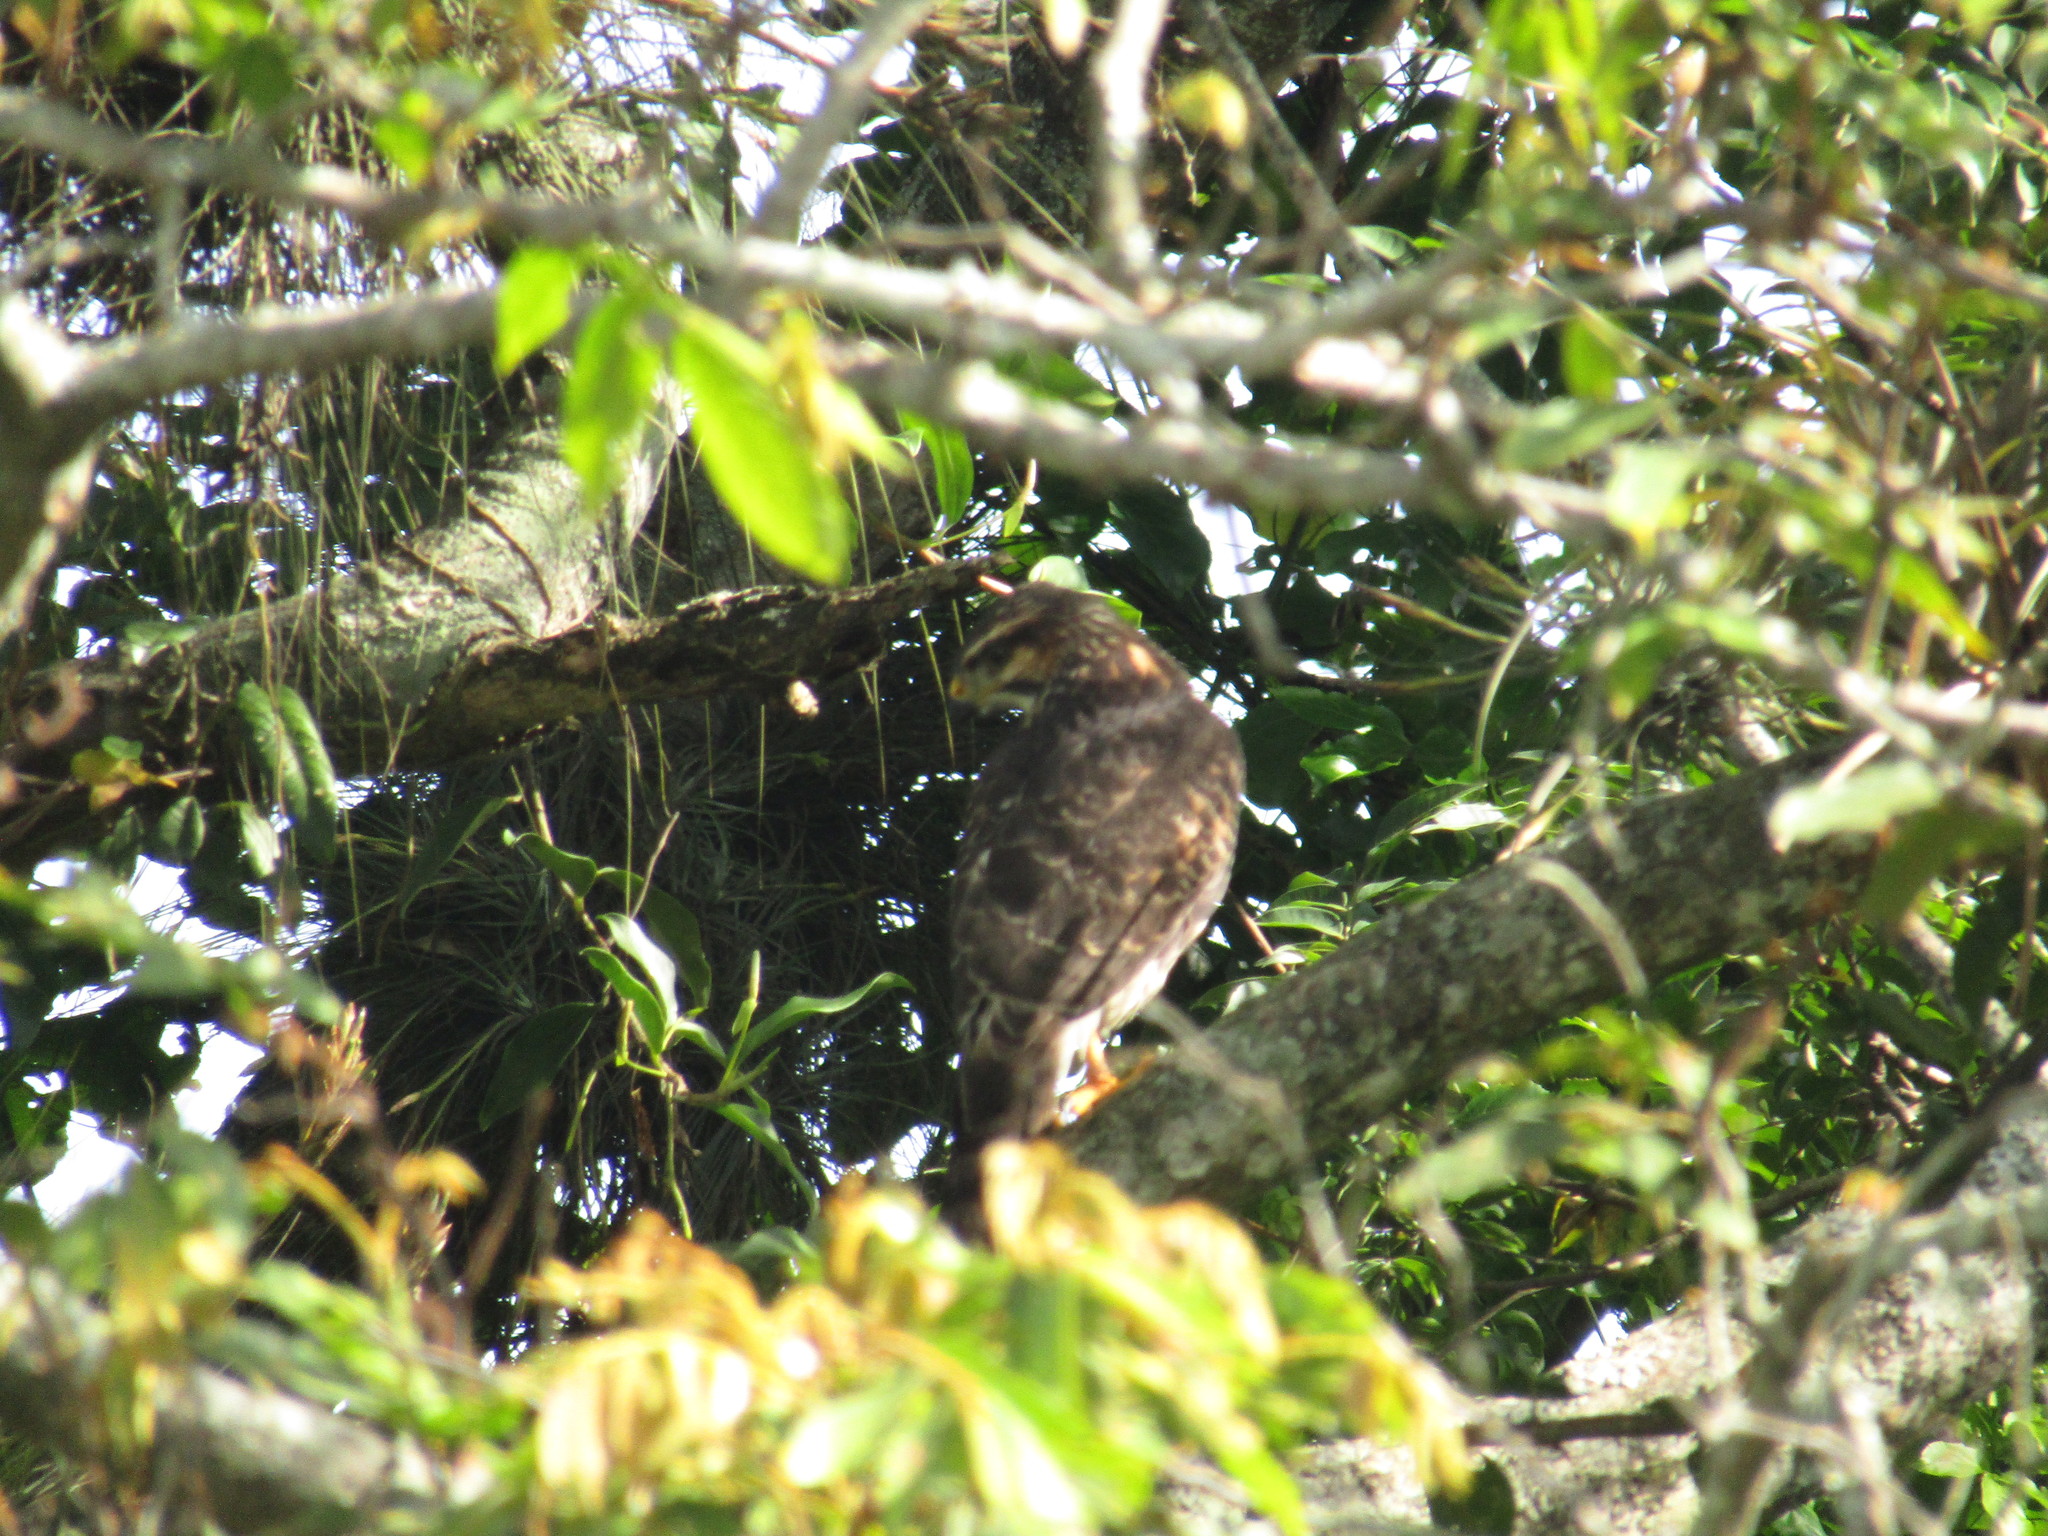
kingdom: Animalia
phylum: Chordata
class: Aves
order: Accipitriformes
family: Accipitridae
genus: Buteo
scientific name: Buteo nitidus
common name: Grey-lined hawk
